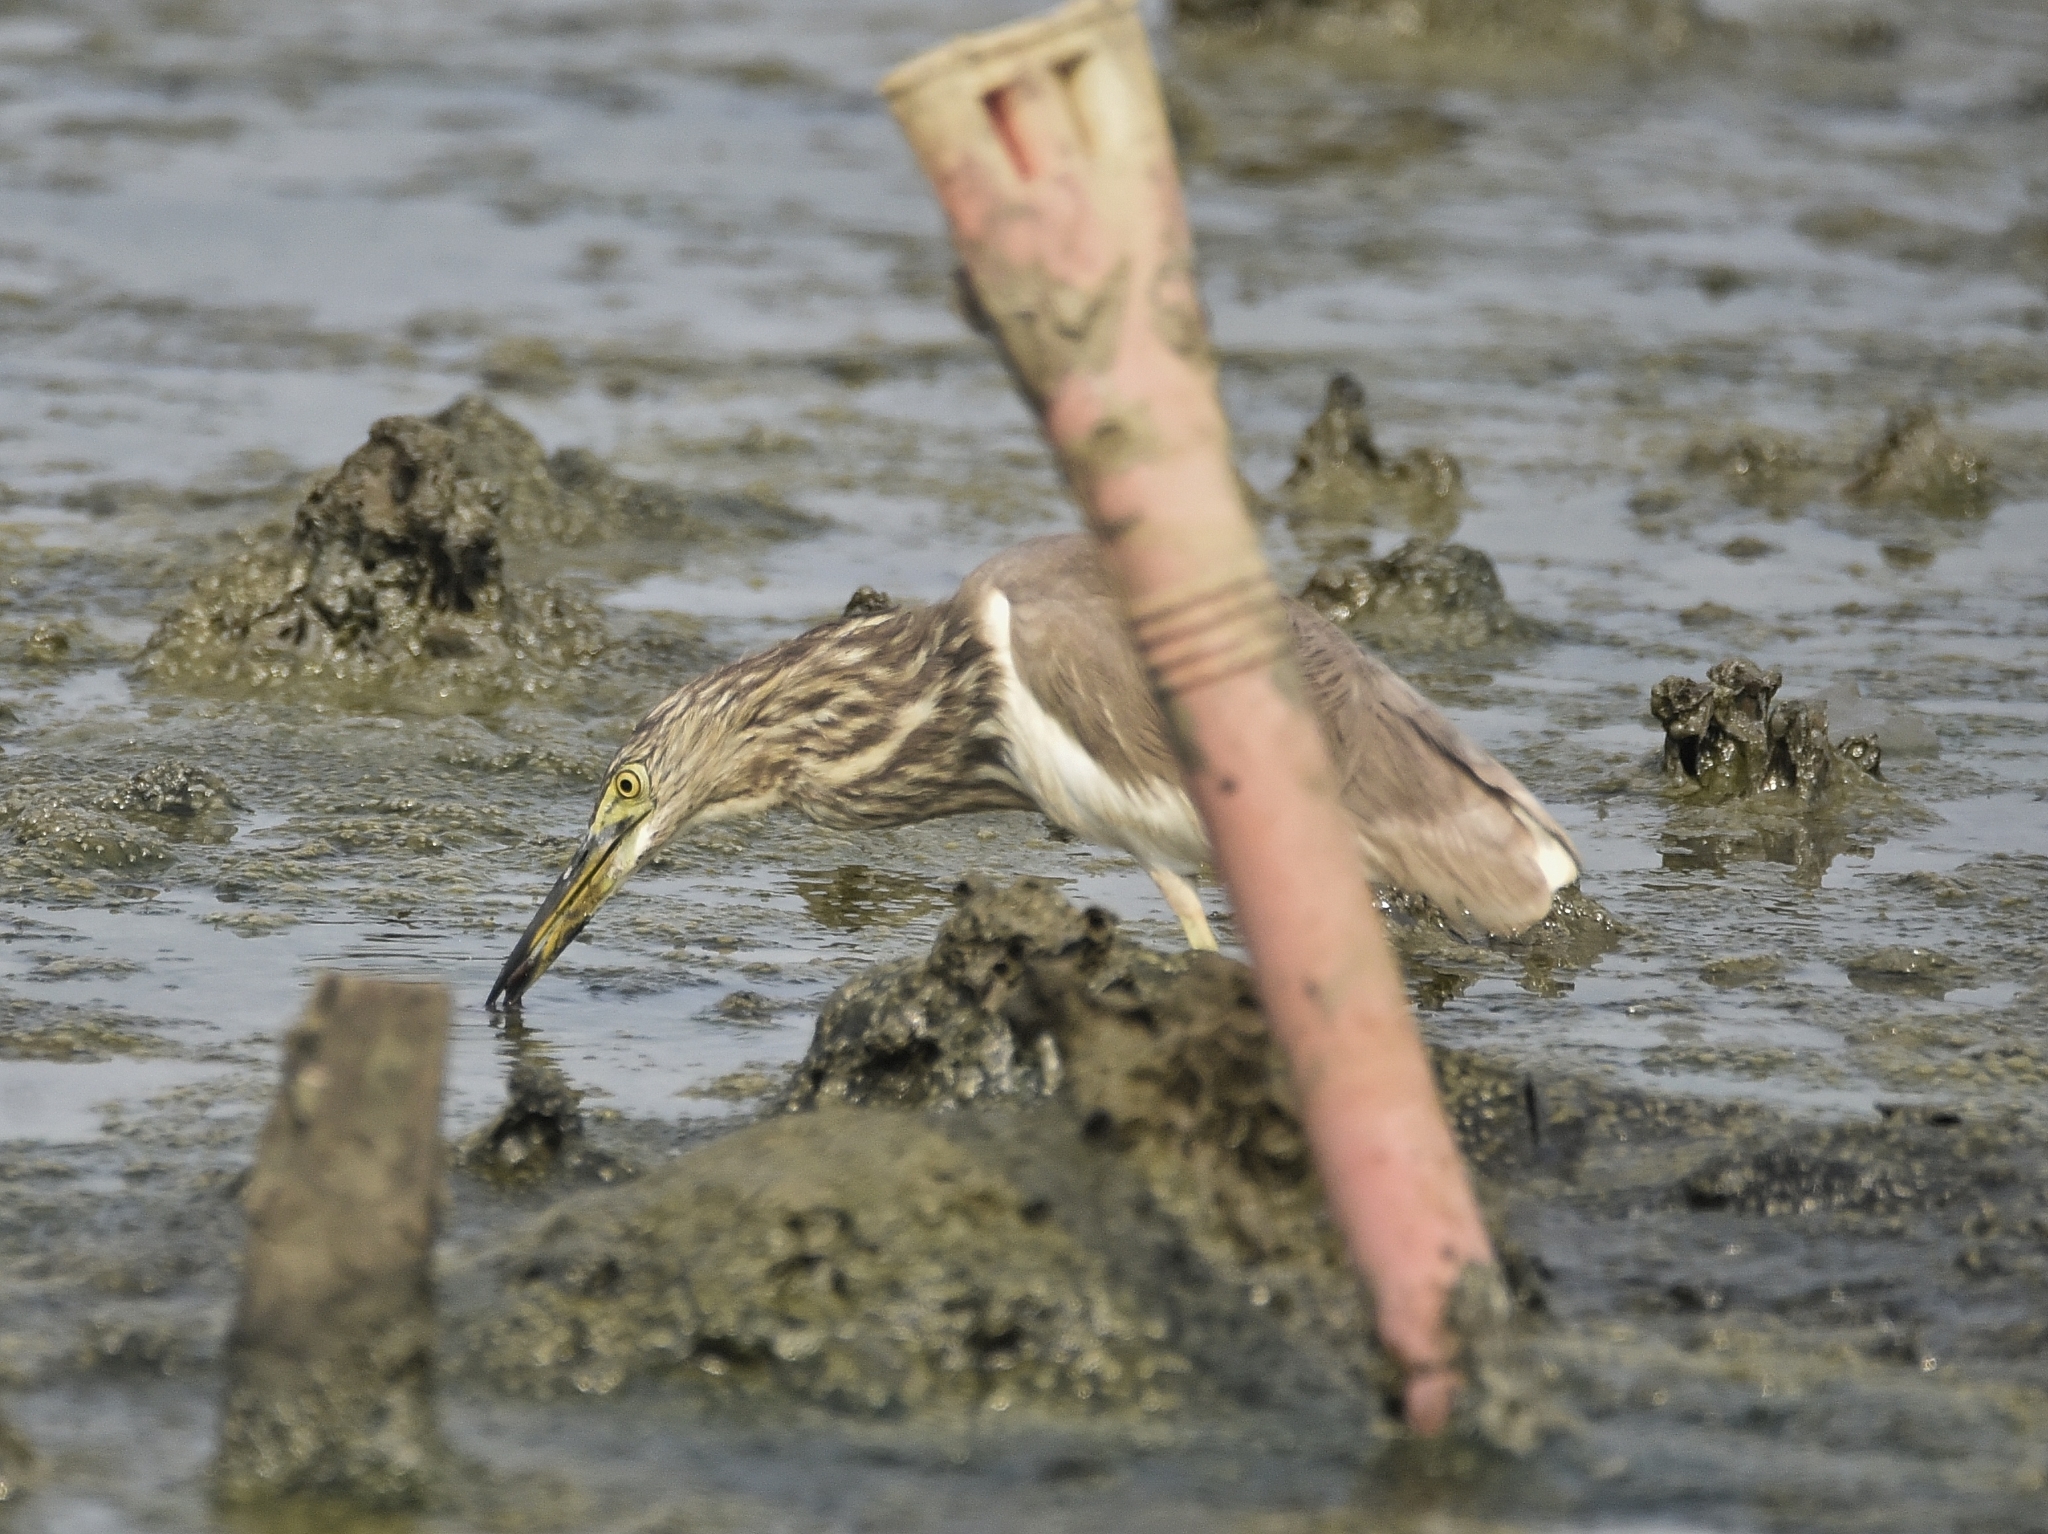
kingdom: Animalia
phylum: Chordata
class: Aves
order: Pelecaniformes
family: Ardeidae
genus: Ardeola
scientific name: Ardeola grayii
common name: Indian pond heron
